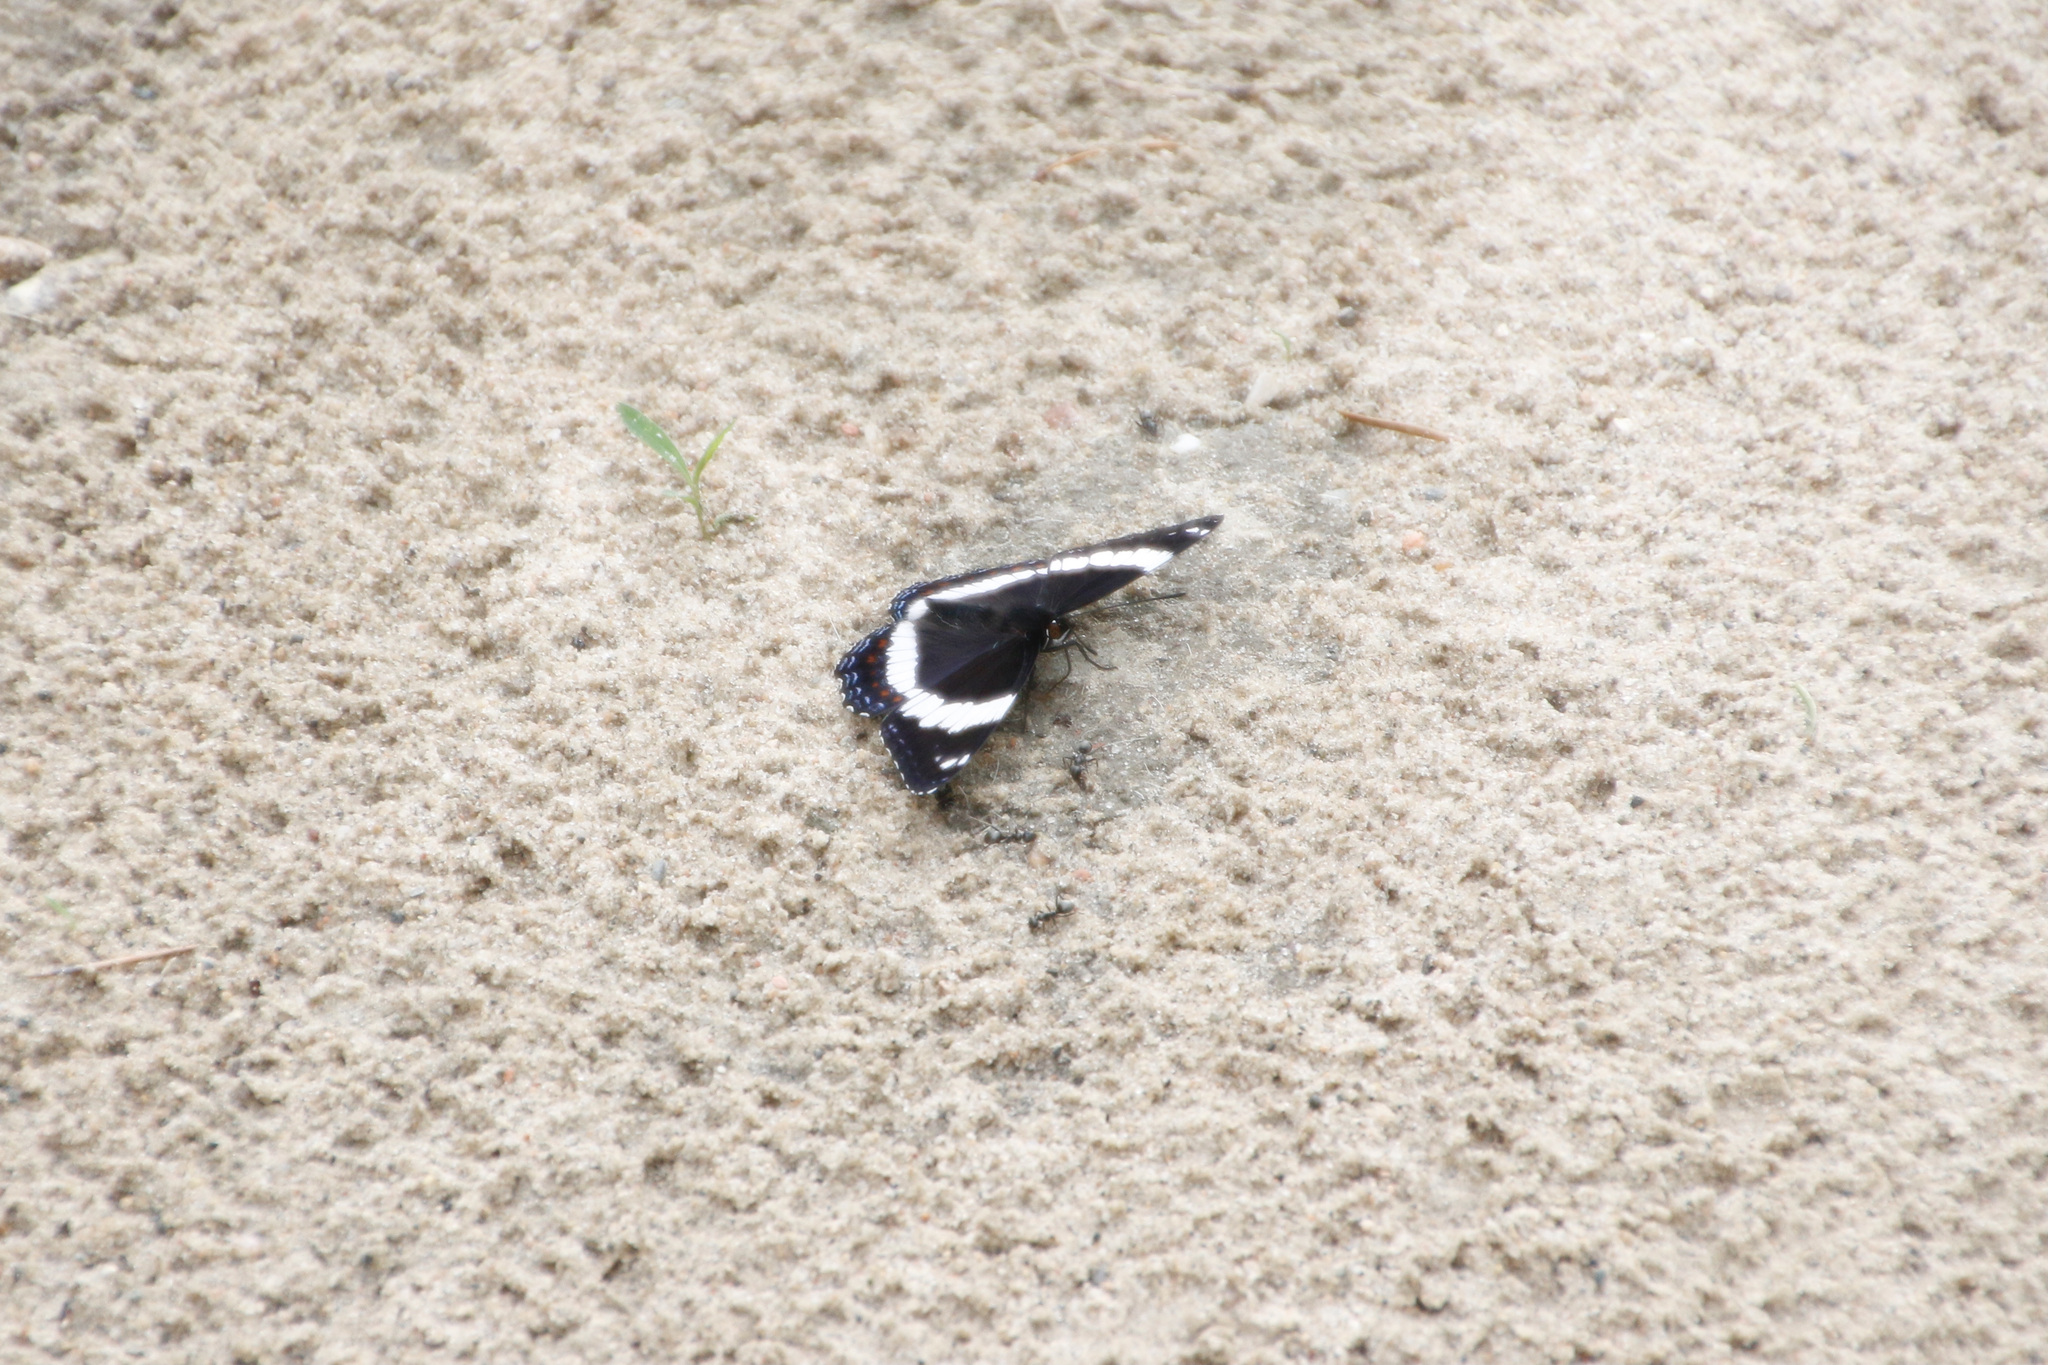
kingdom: Animalia
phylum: Arthropoda
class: Insecta
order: Lepidoptera
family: Nymphalidae
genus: Limenitis
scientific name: Limenitis arthemis
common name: Red-spotted admiral
